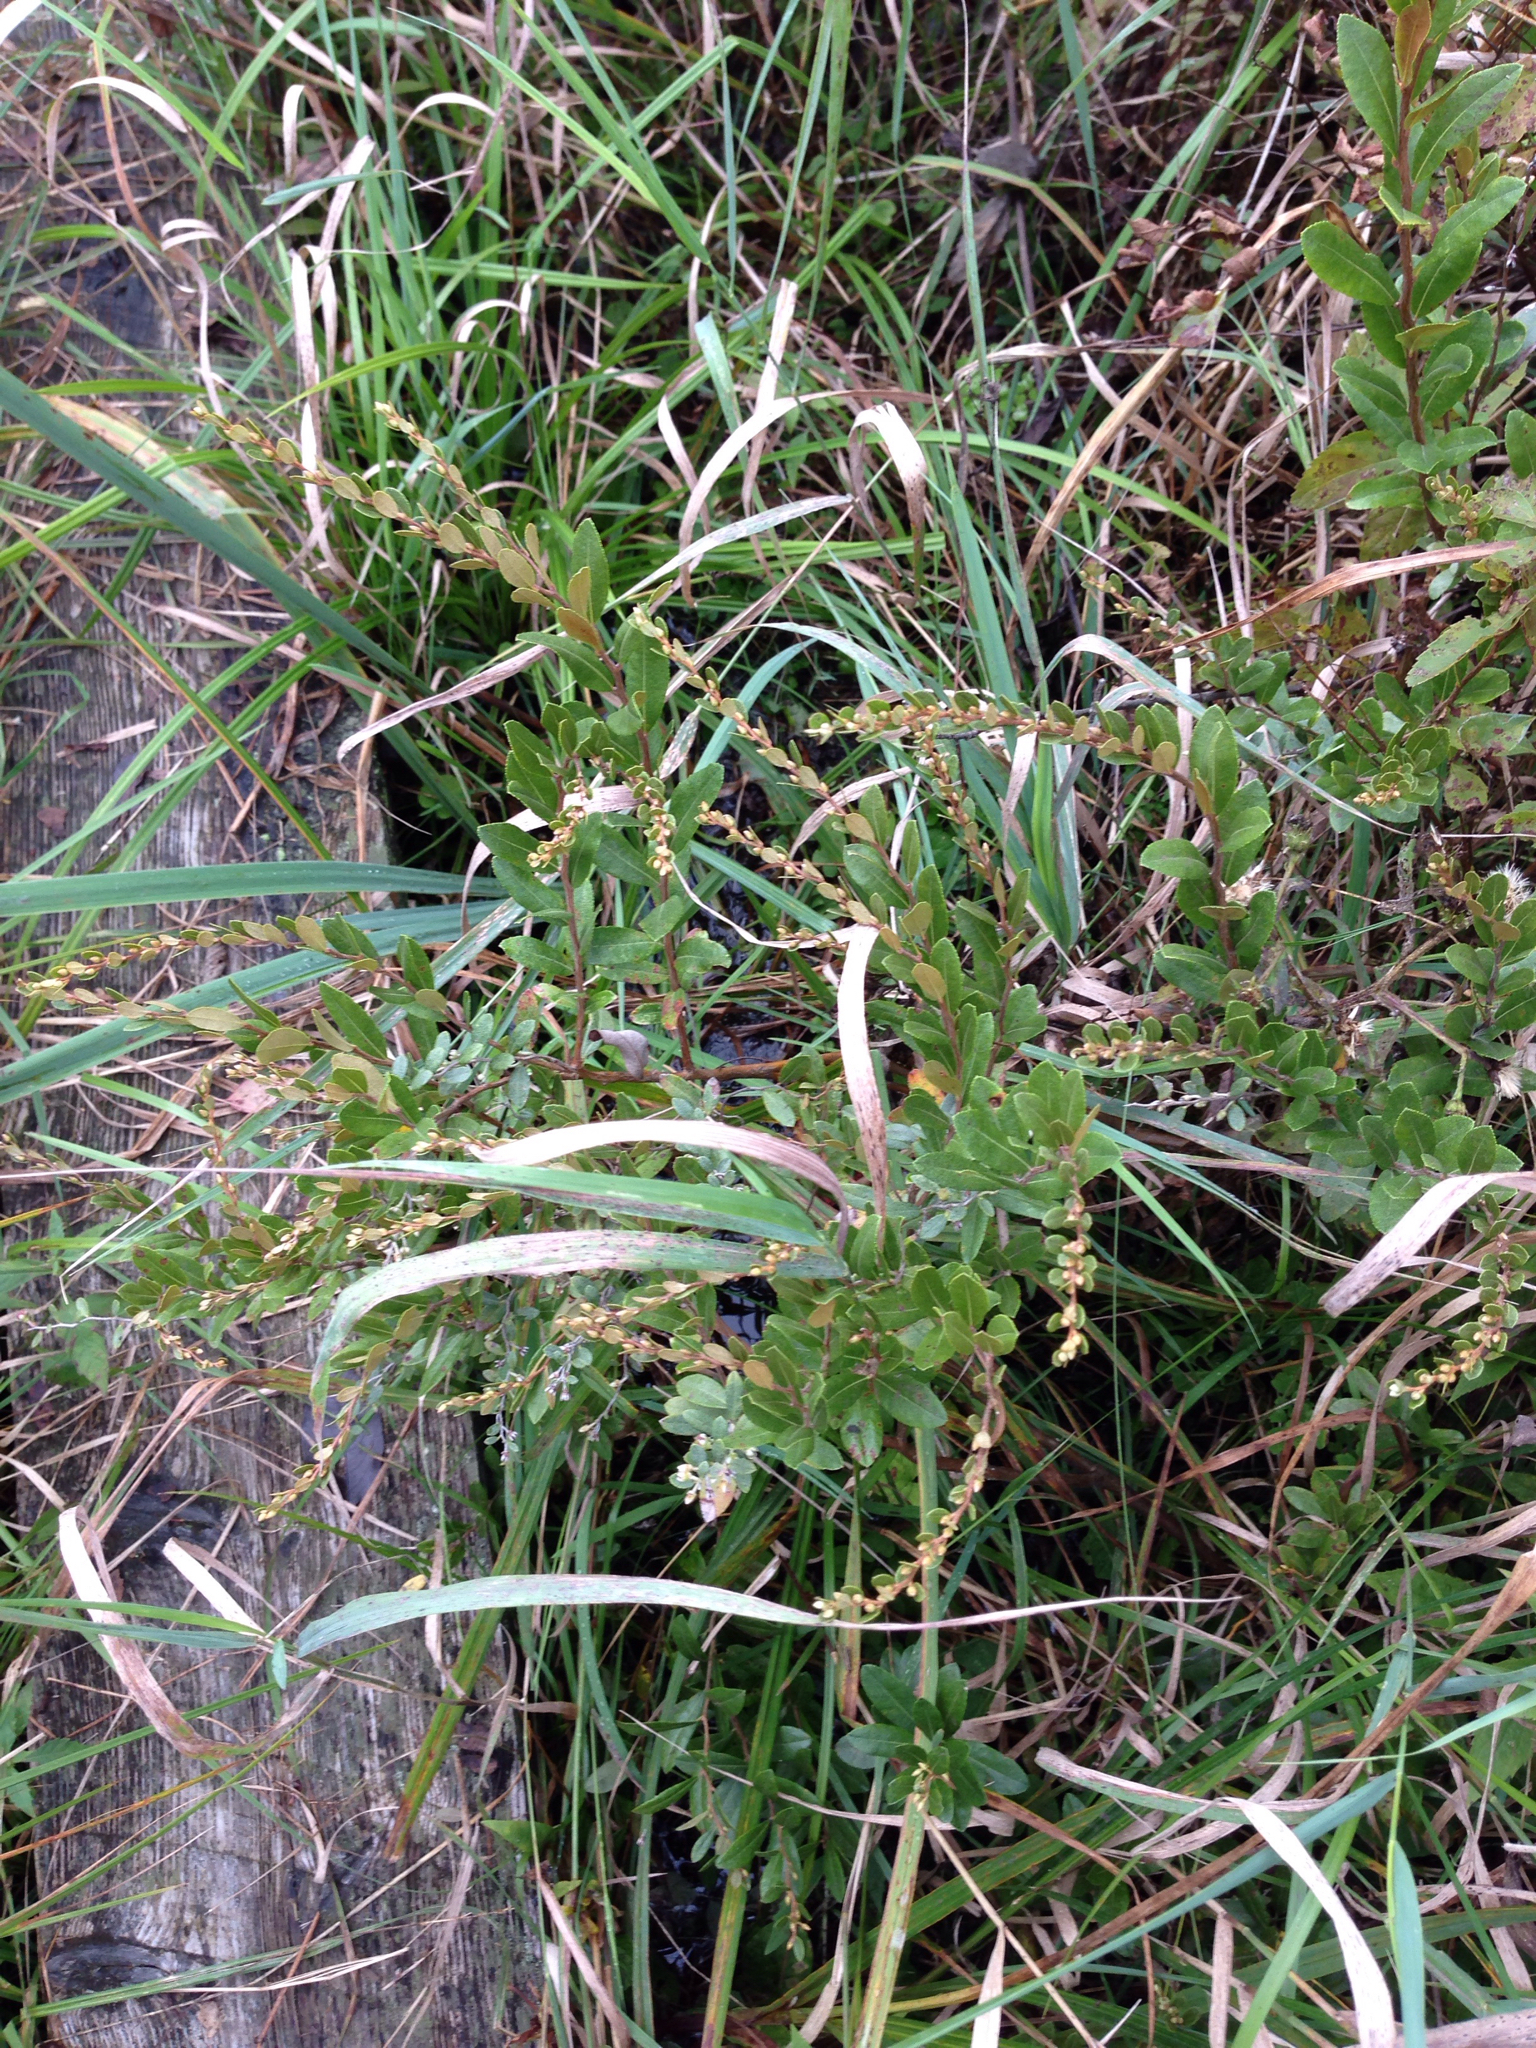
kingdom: Plantae
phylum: Tracheophyta
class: Magnoliopsida
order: Ericales
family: Ericaceae
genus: Chamaedaphne
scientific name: Chamaedaphne calyculata
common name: Leatherleaf
